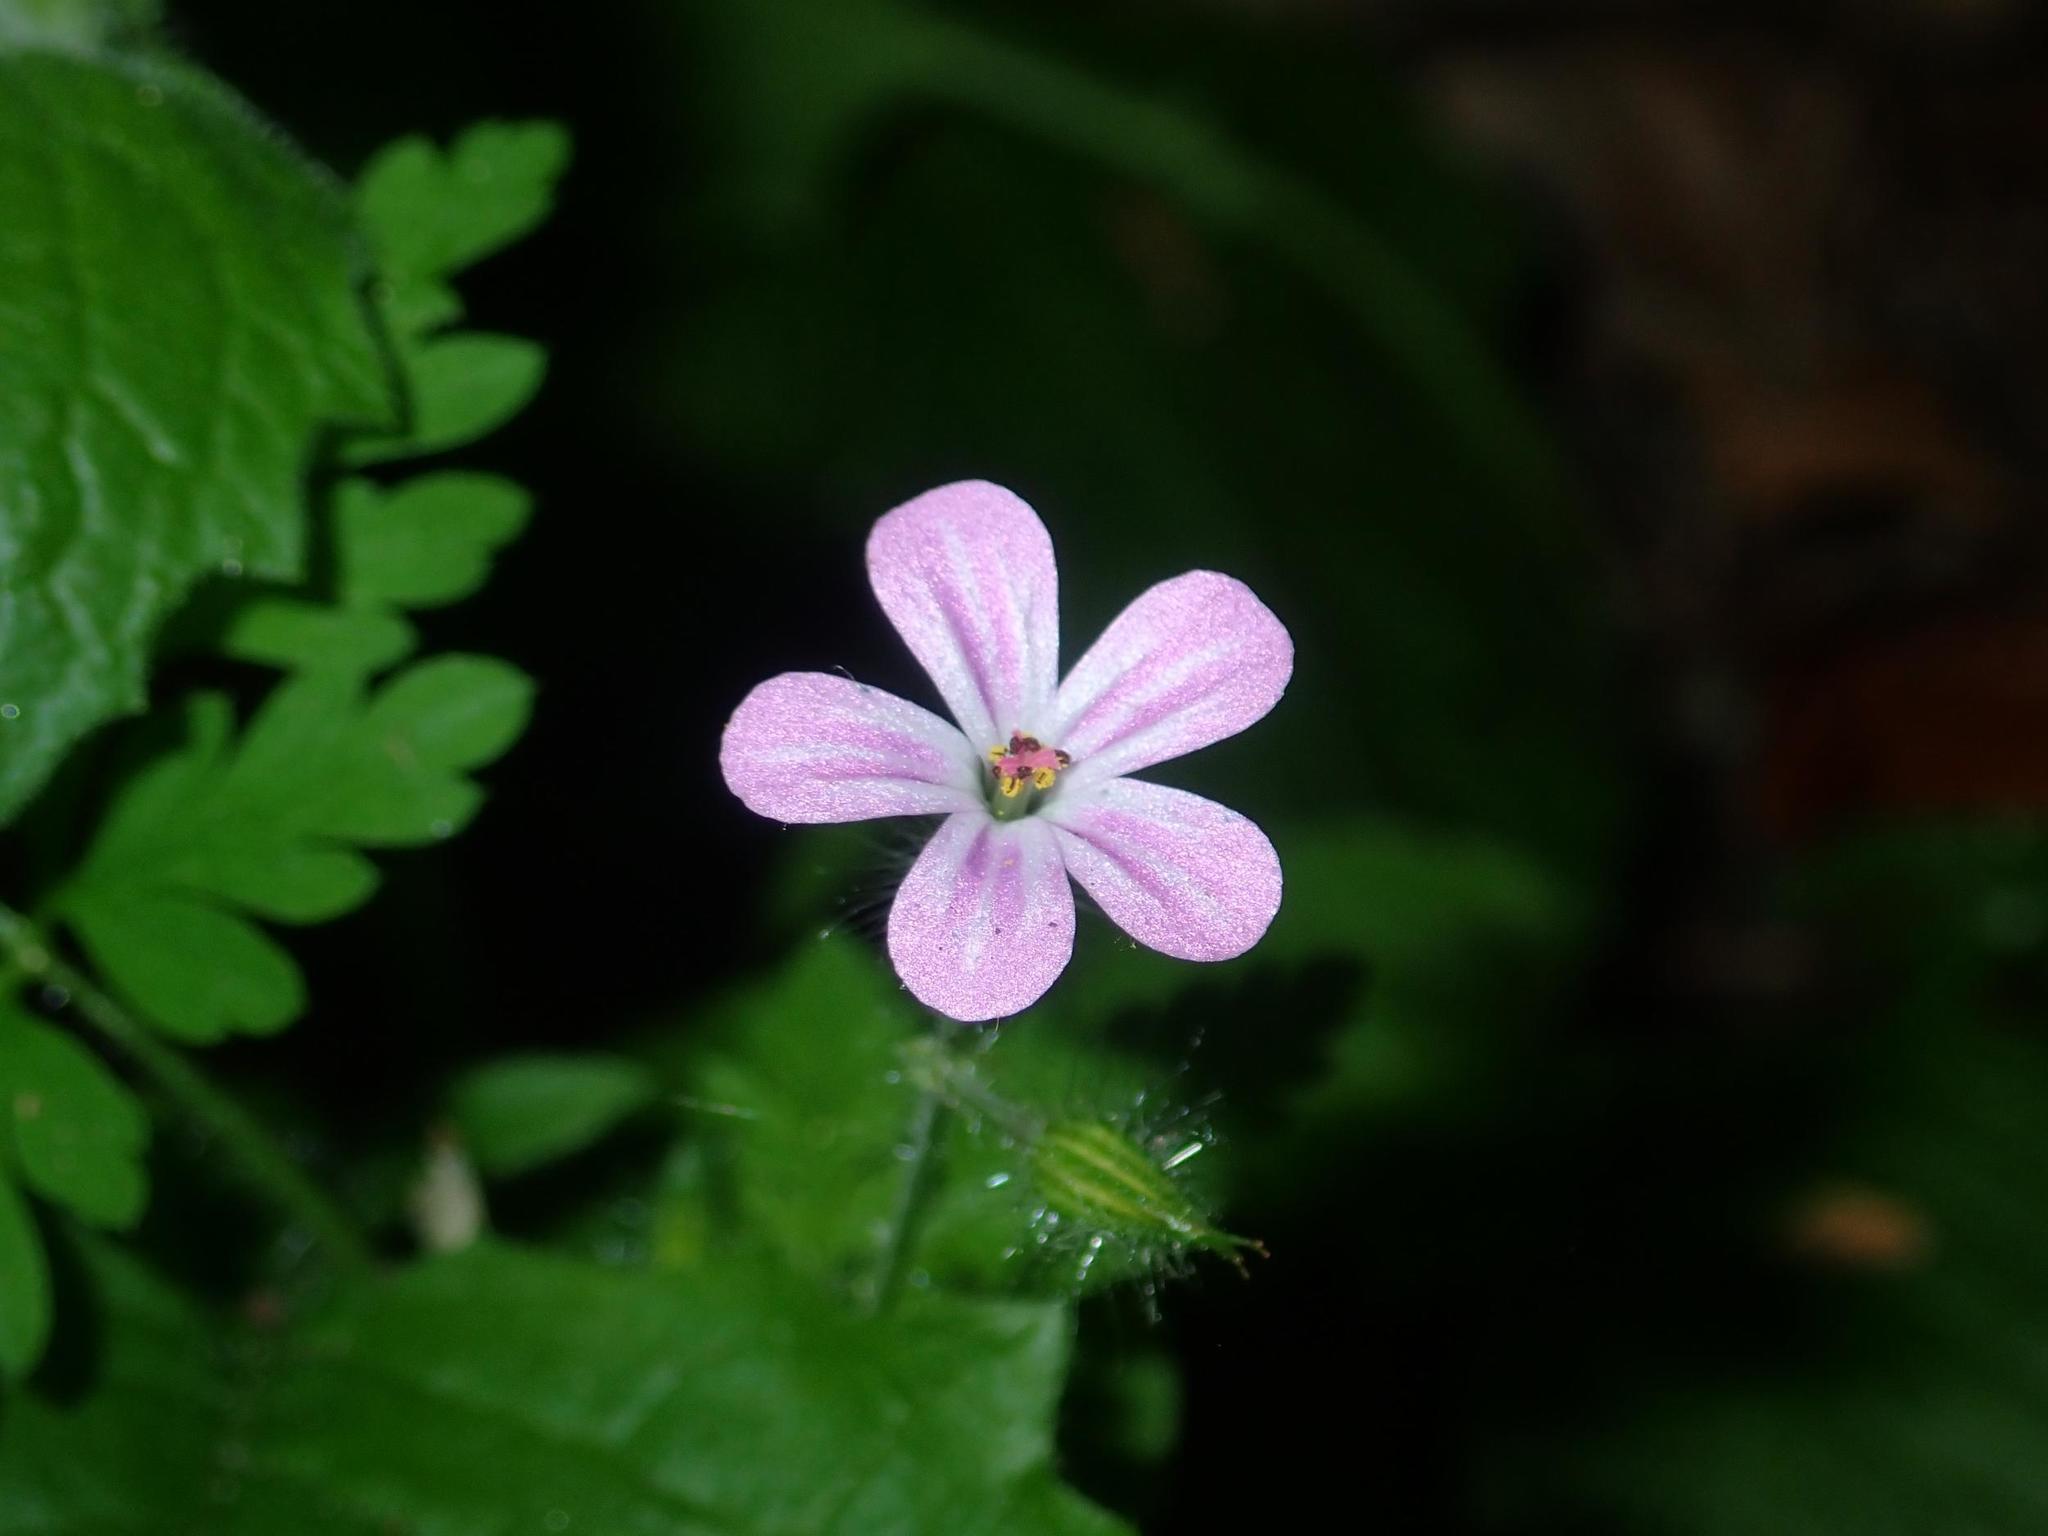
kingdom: Plantae
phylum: Tracheophyta
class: Magnoliopsida
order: Geraniales
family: Geraniaceae
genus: Geranium
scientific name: Geranium robertianum
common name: Herb-robert
